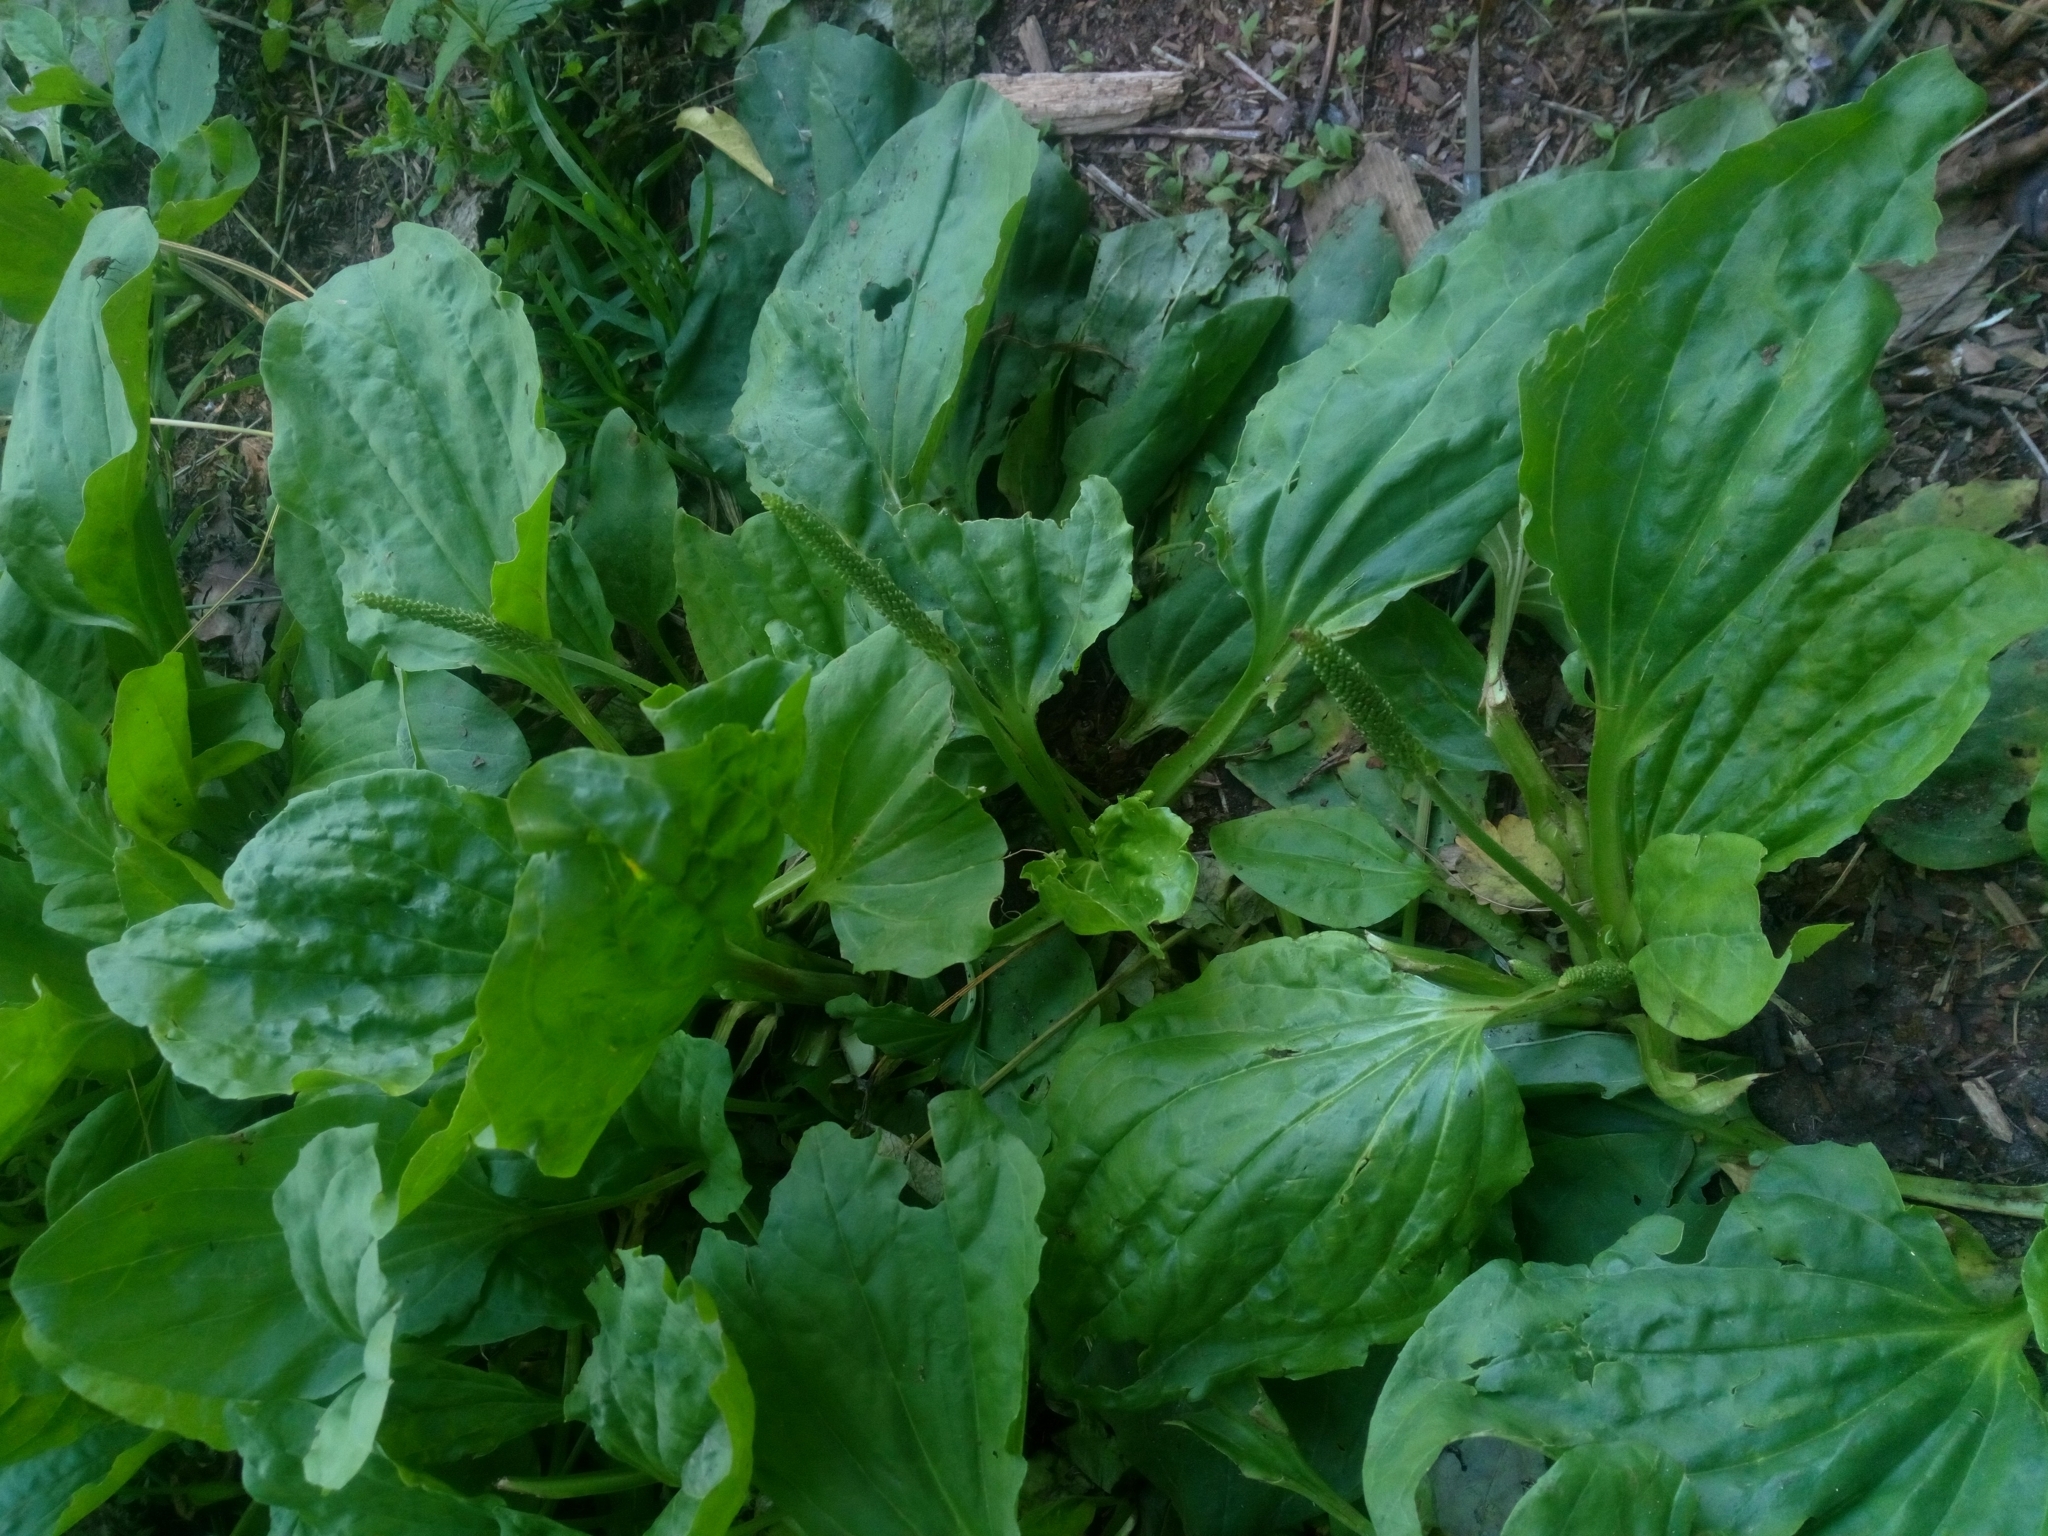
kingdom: Plantae
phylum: Tracheophyta
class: Magnoliopsida
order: Lamiales
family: Plantaginaceae
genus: Plantago
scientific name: Plantago major
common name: Common plantain
